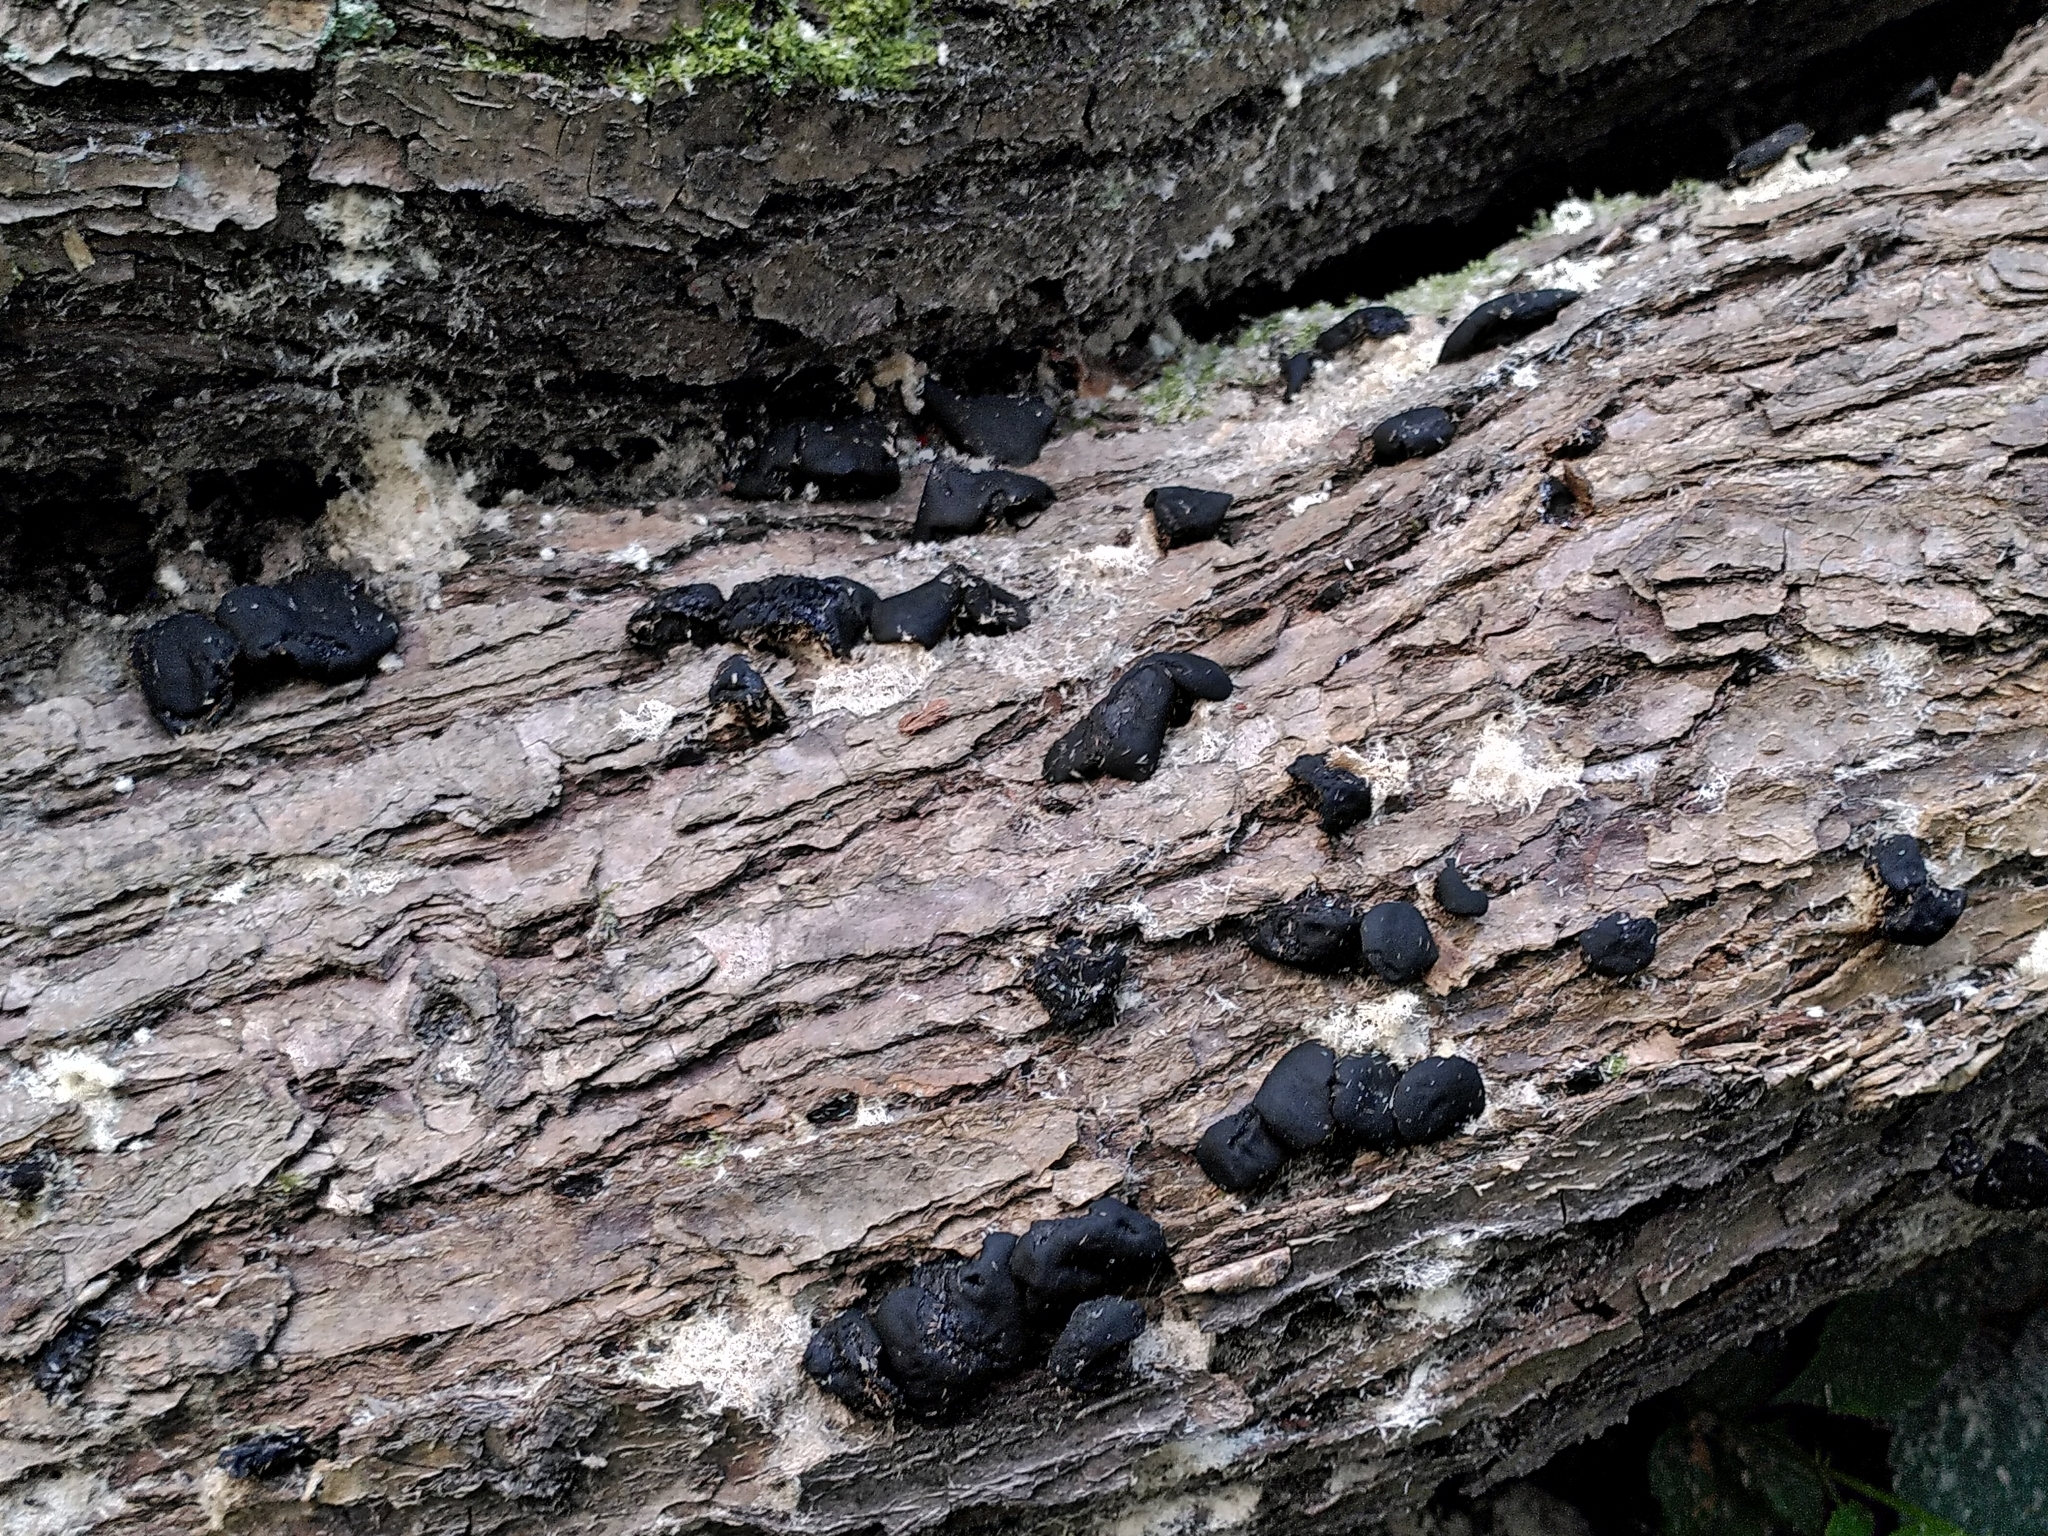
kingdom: Fungi
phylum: Ascomycota
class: Leotiomycetes
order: Phacidiales
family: Phacidiaceae
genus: Bulgaria
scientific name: Bulgaria inquinans
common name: Black bulgar
